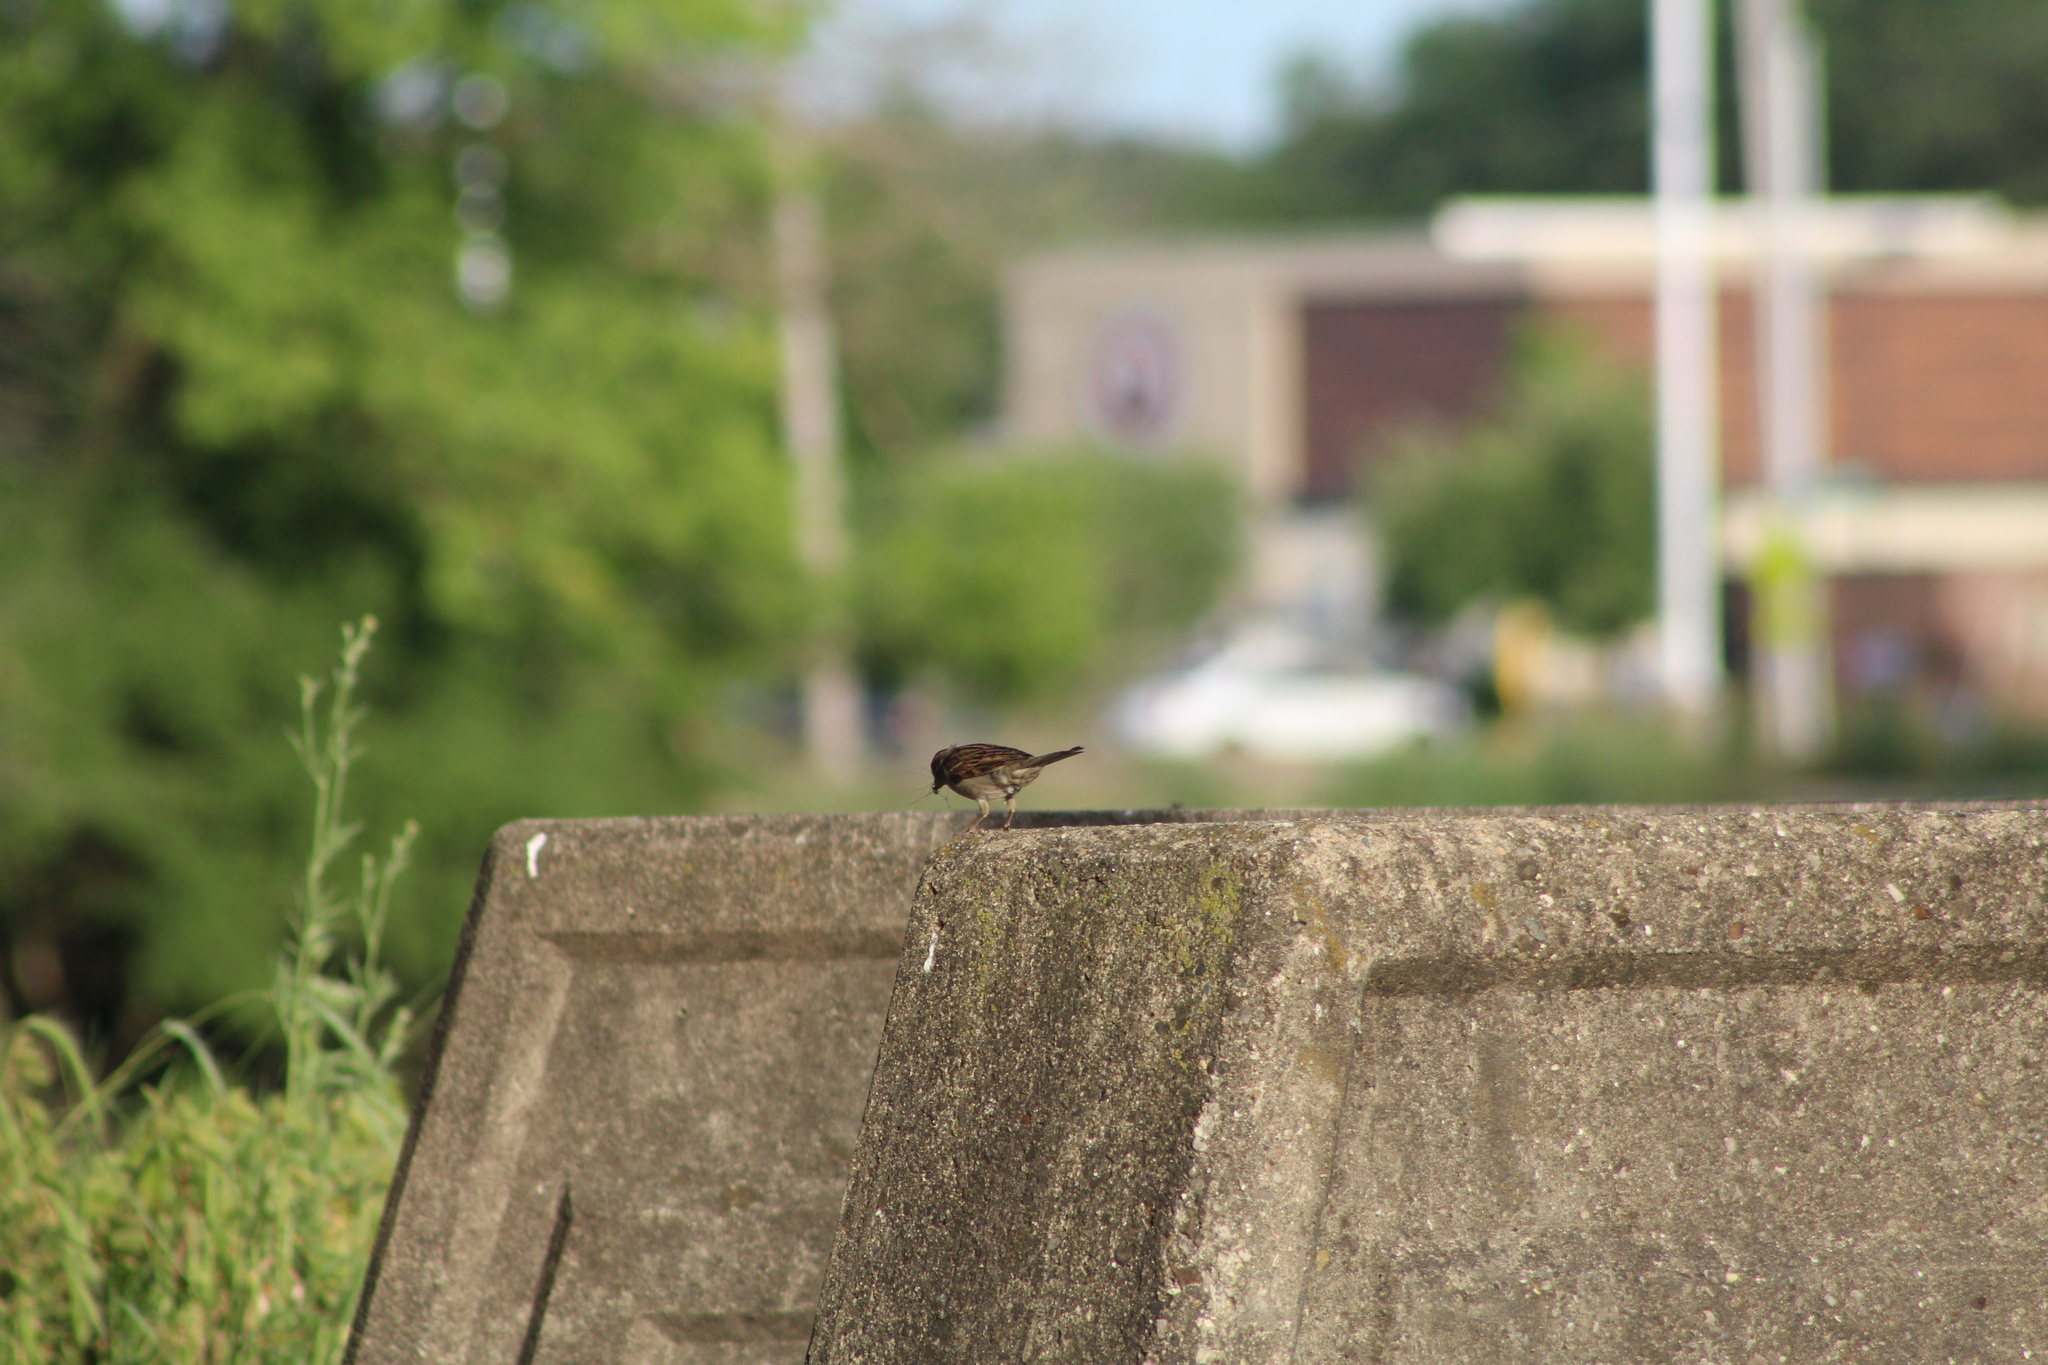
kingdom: Animalia
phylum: Chordata
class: Aves
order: Passeriformes
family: Passeridae
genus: Passer
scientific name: Passer domesticus
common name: House sparrow
